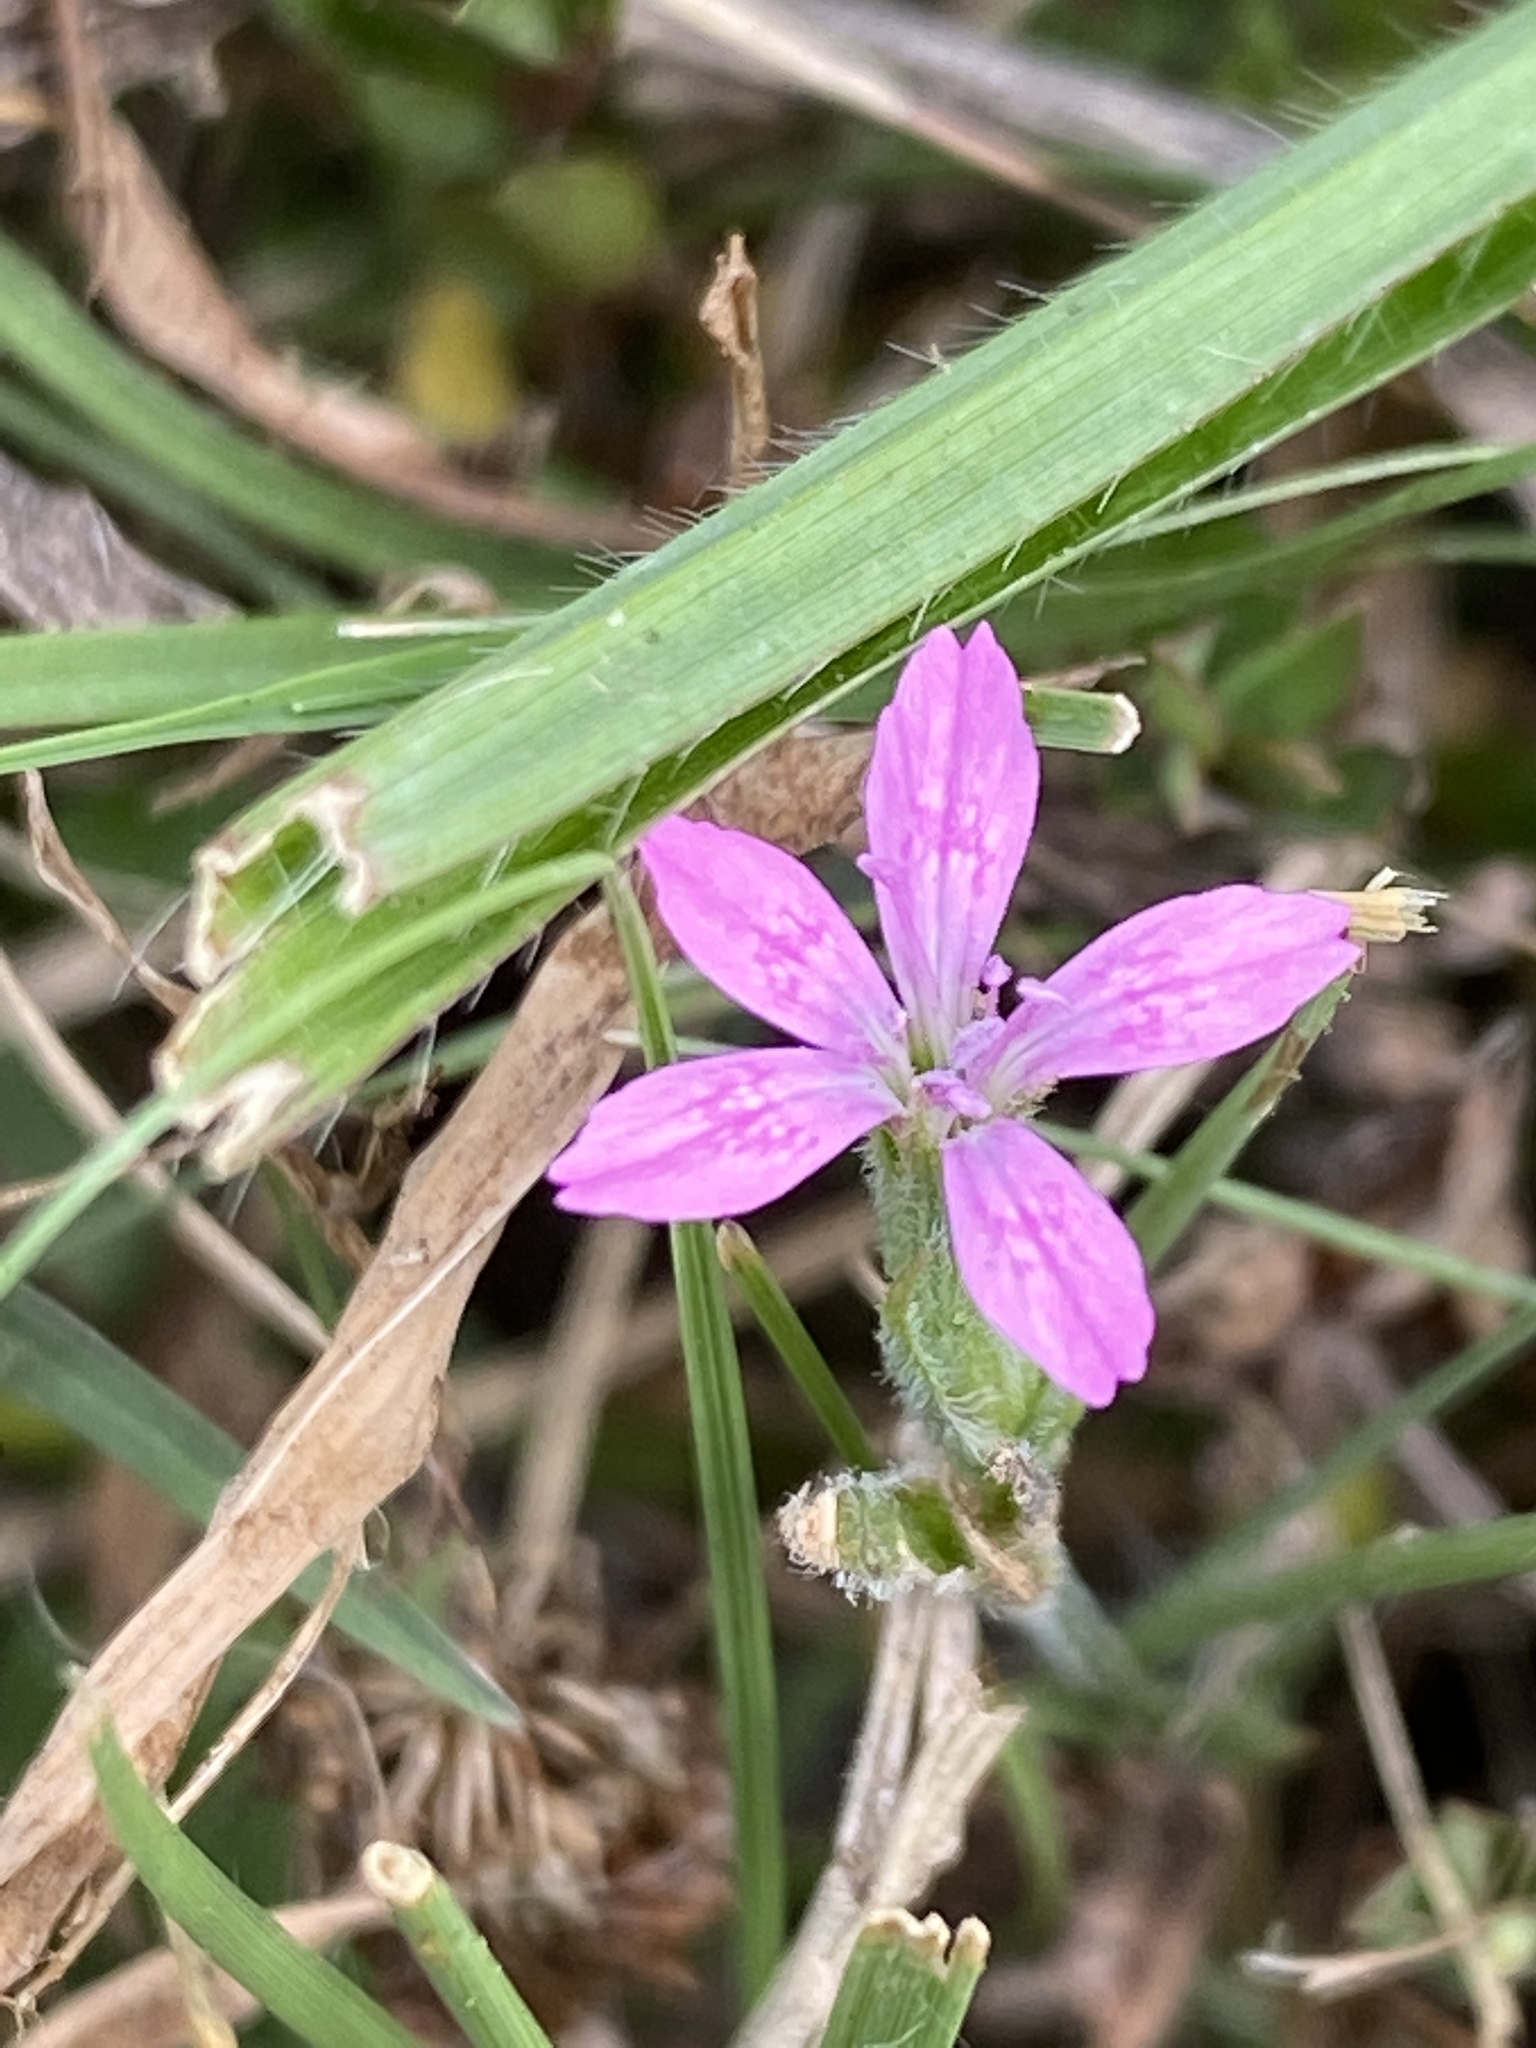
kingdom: Plantae
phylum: Tracheophyta
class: Magnoliopsida
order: Caryophyllales
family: Caryophyllaceae
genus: Dianthus
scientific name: Dianthus armeria
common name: Deptford pink
